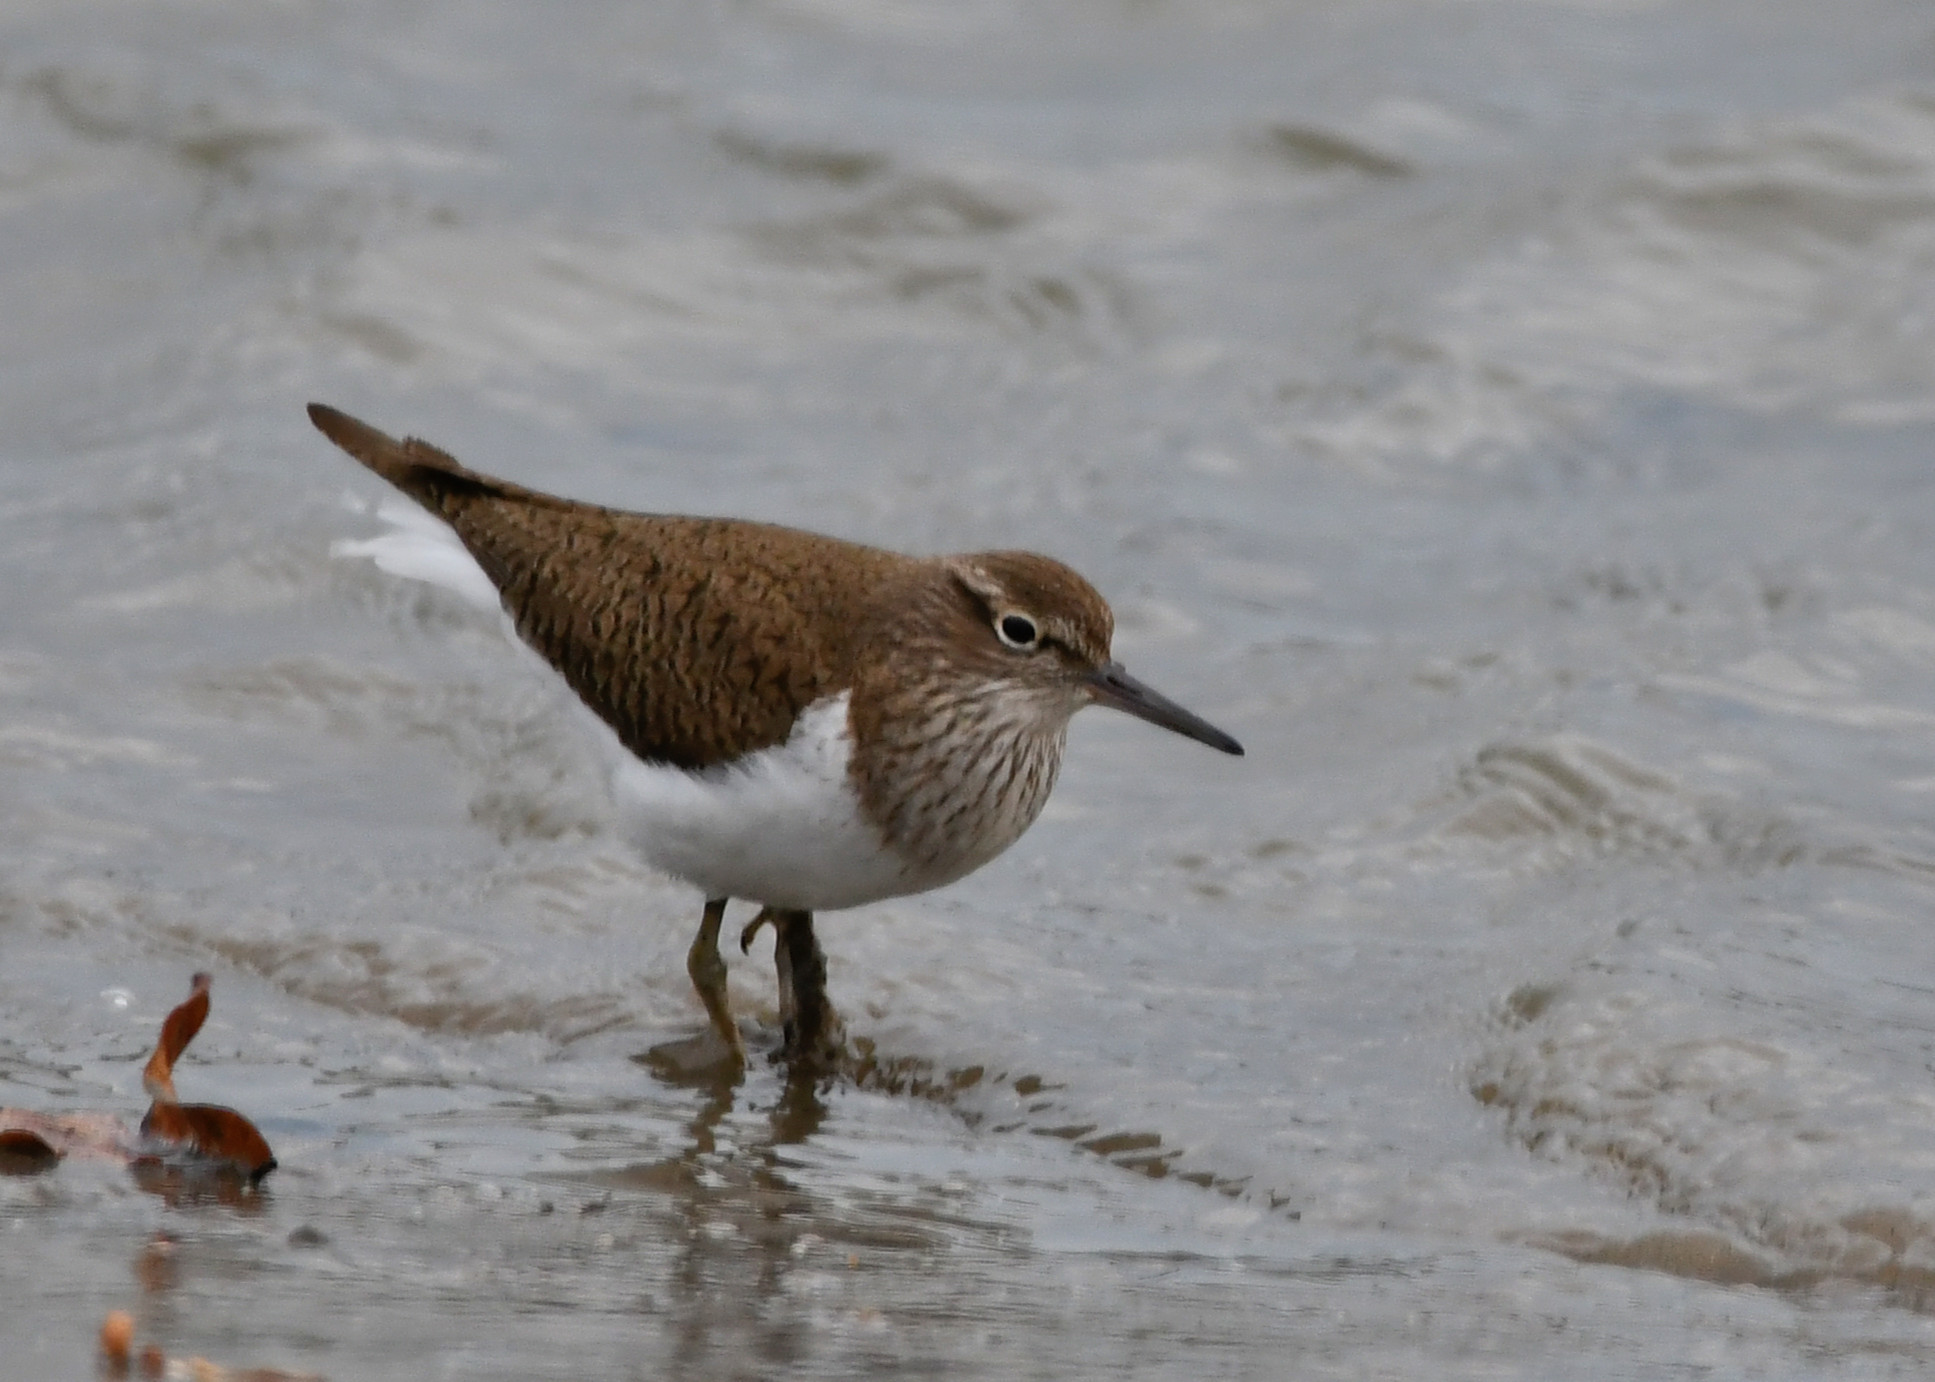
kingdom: Animalia
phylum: Chordata
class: Aves
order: Charadriiformes
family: Scolopacidae
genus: Actitis
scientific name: Actitis hypoleucos
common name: Common sandpiper
